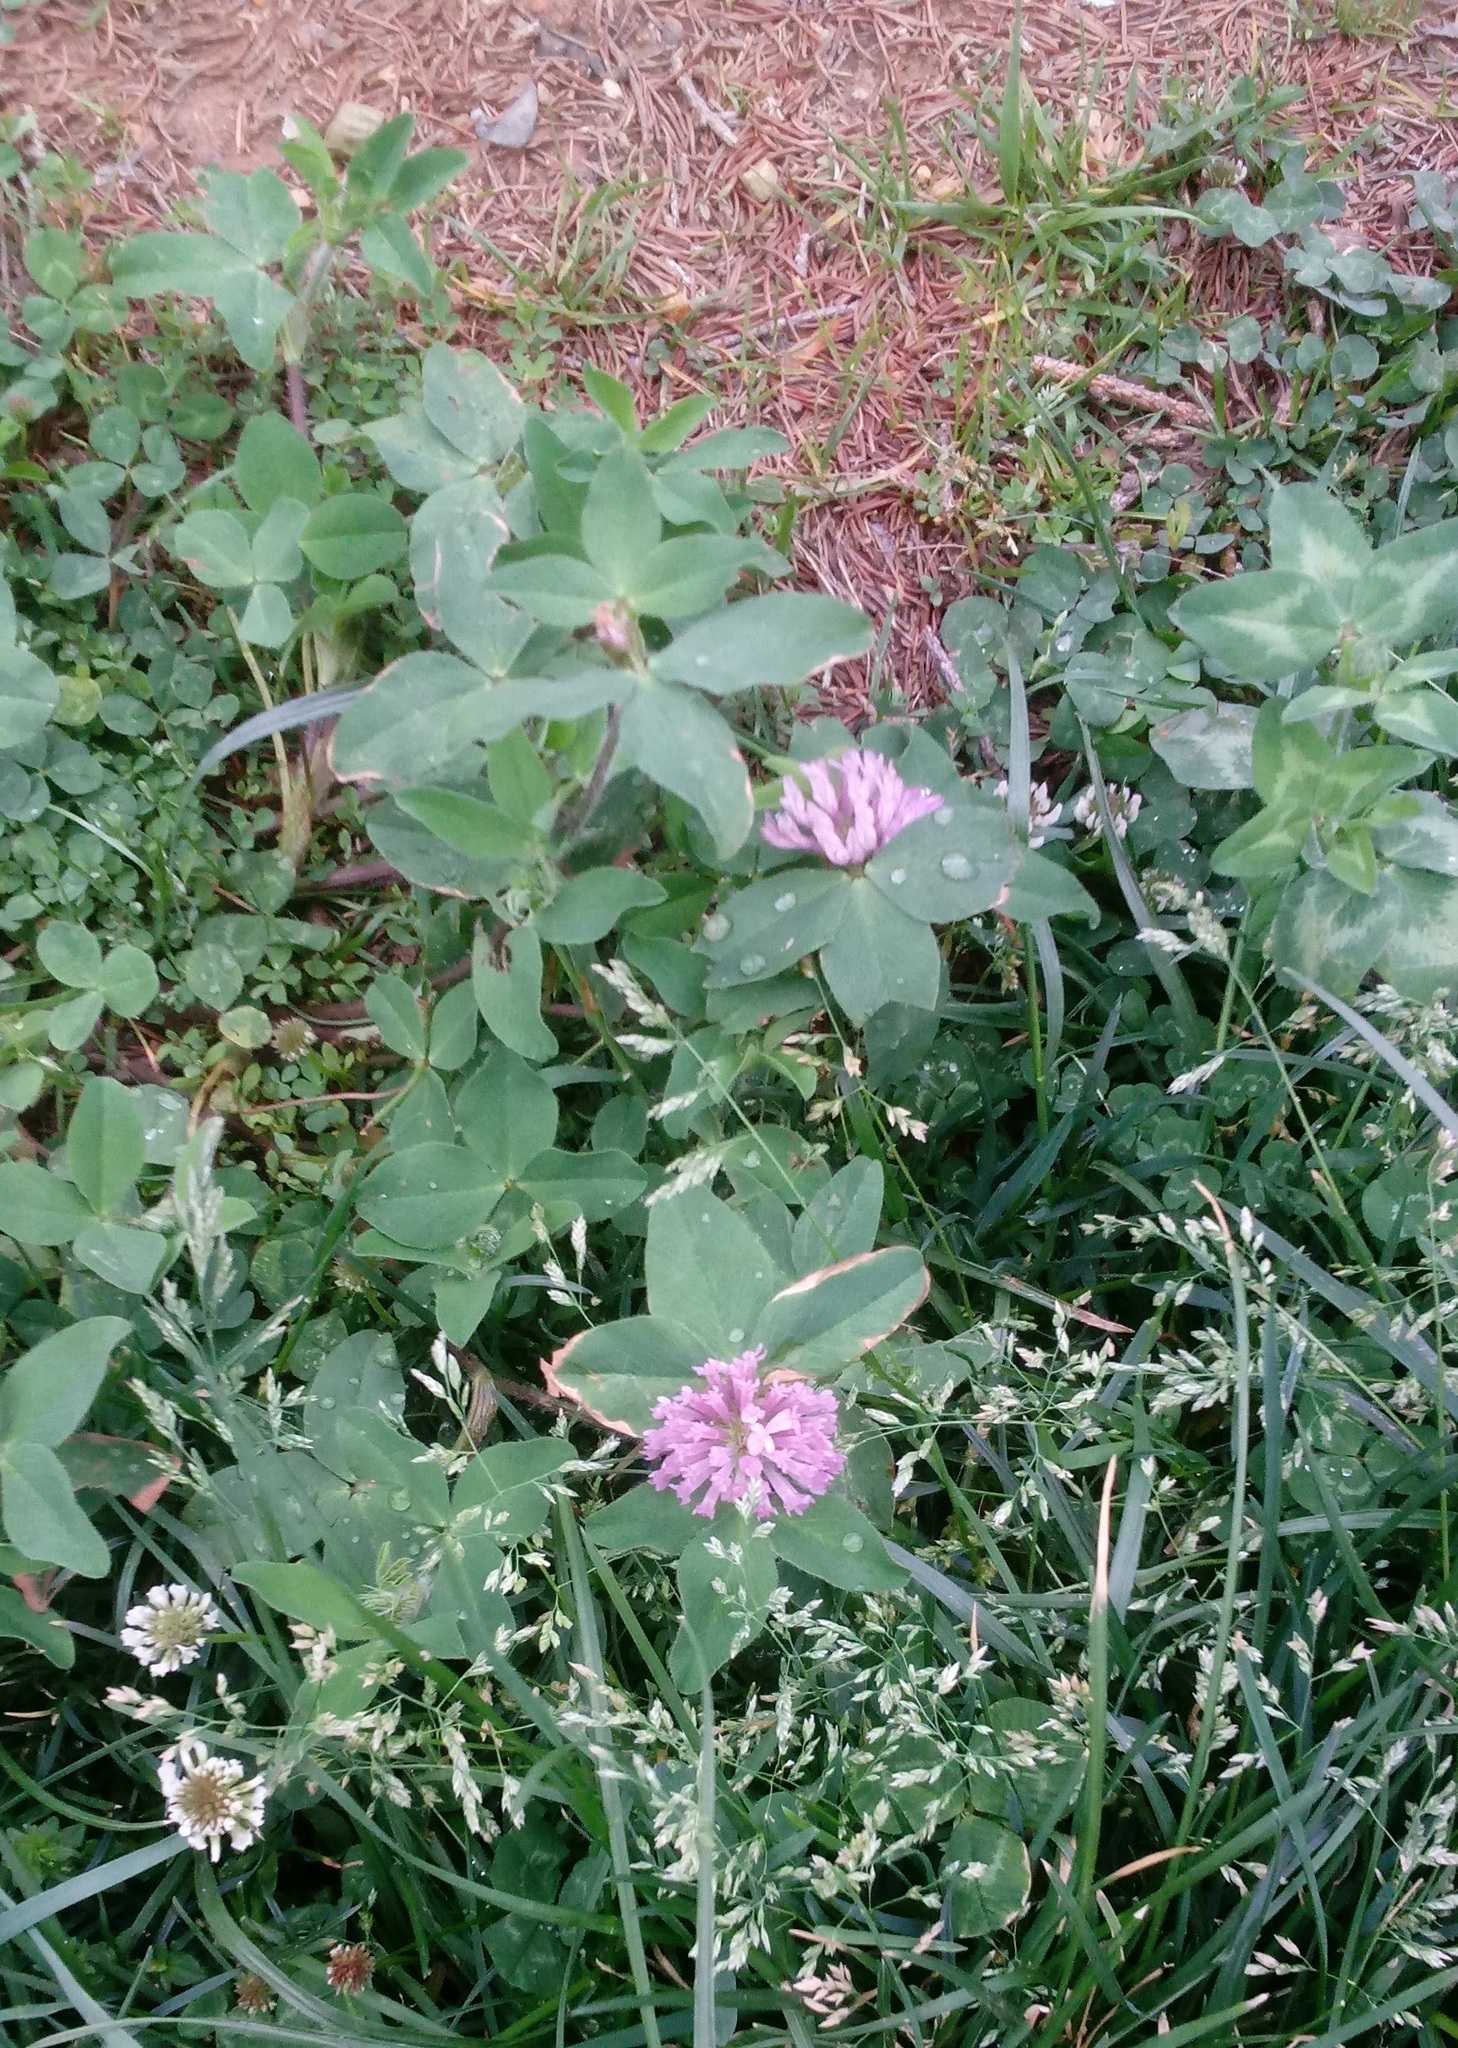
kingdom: Plantae
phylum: Tracheophyta
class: Magnoliopsida
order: Fabales
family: Fabaceae
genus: Trifolium
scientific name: Trifolium pratense
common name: Red clover
